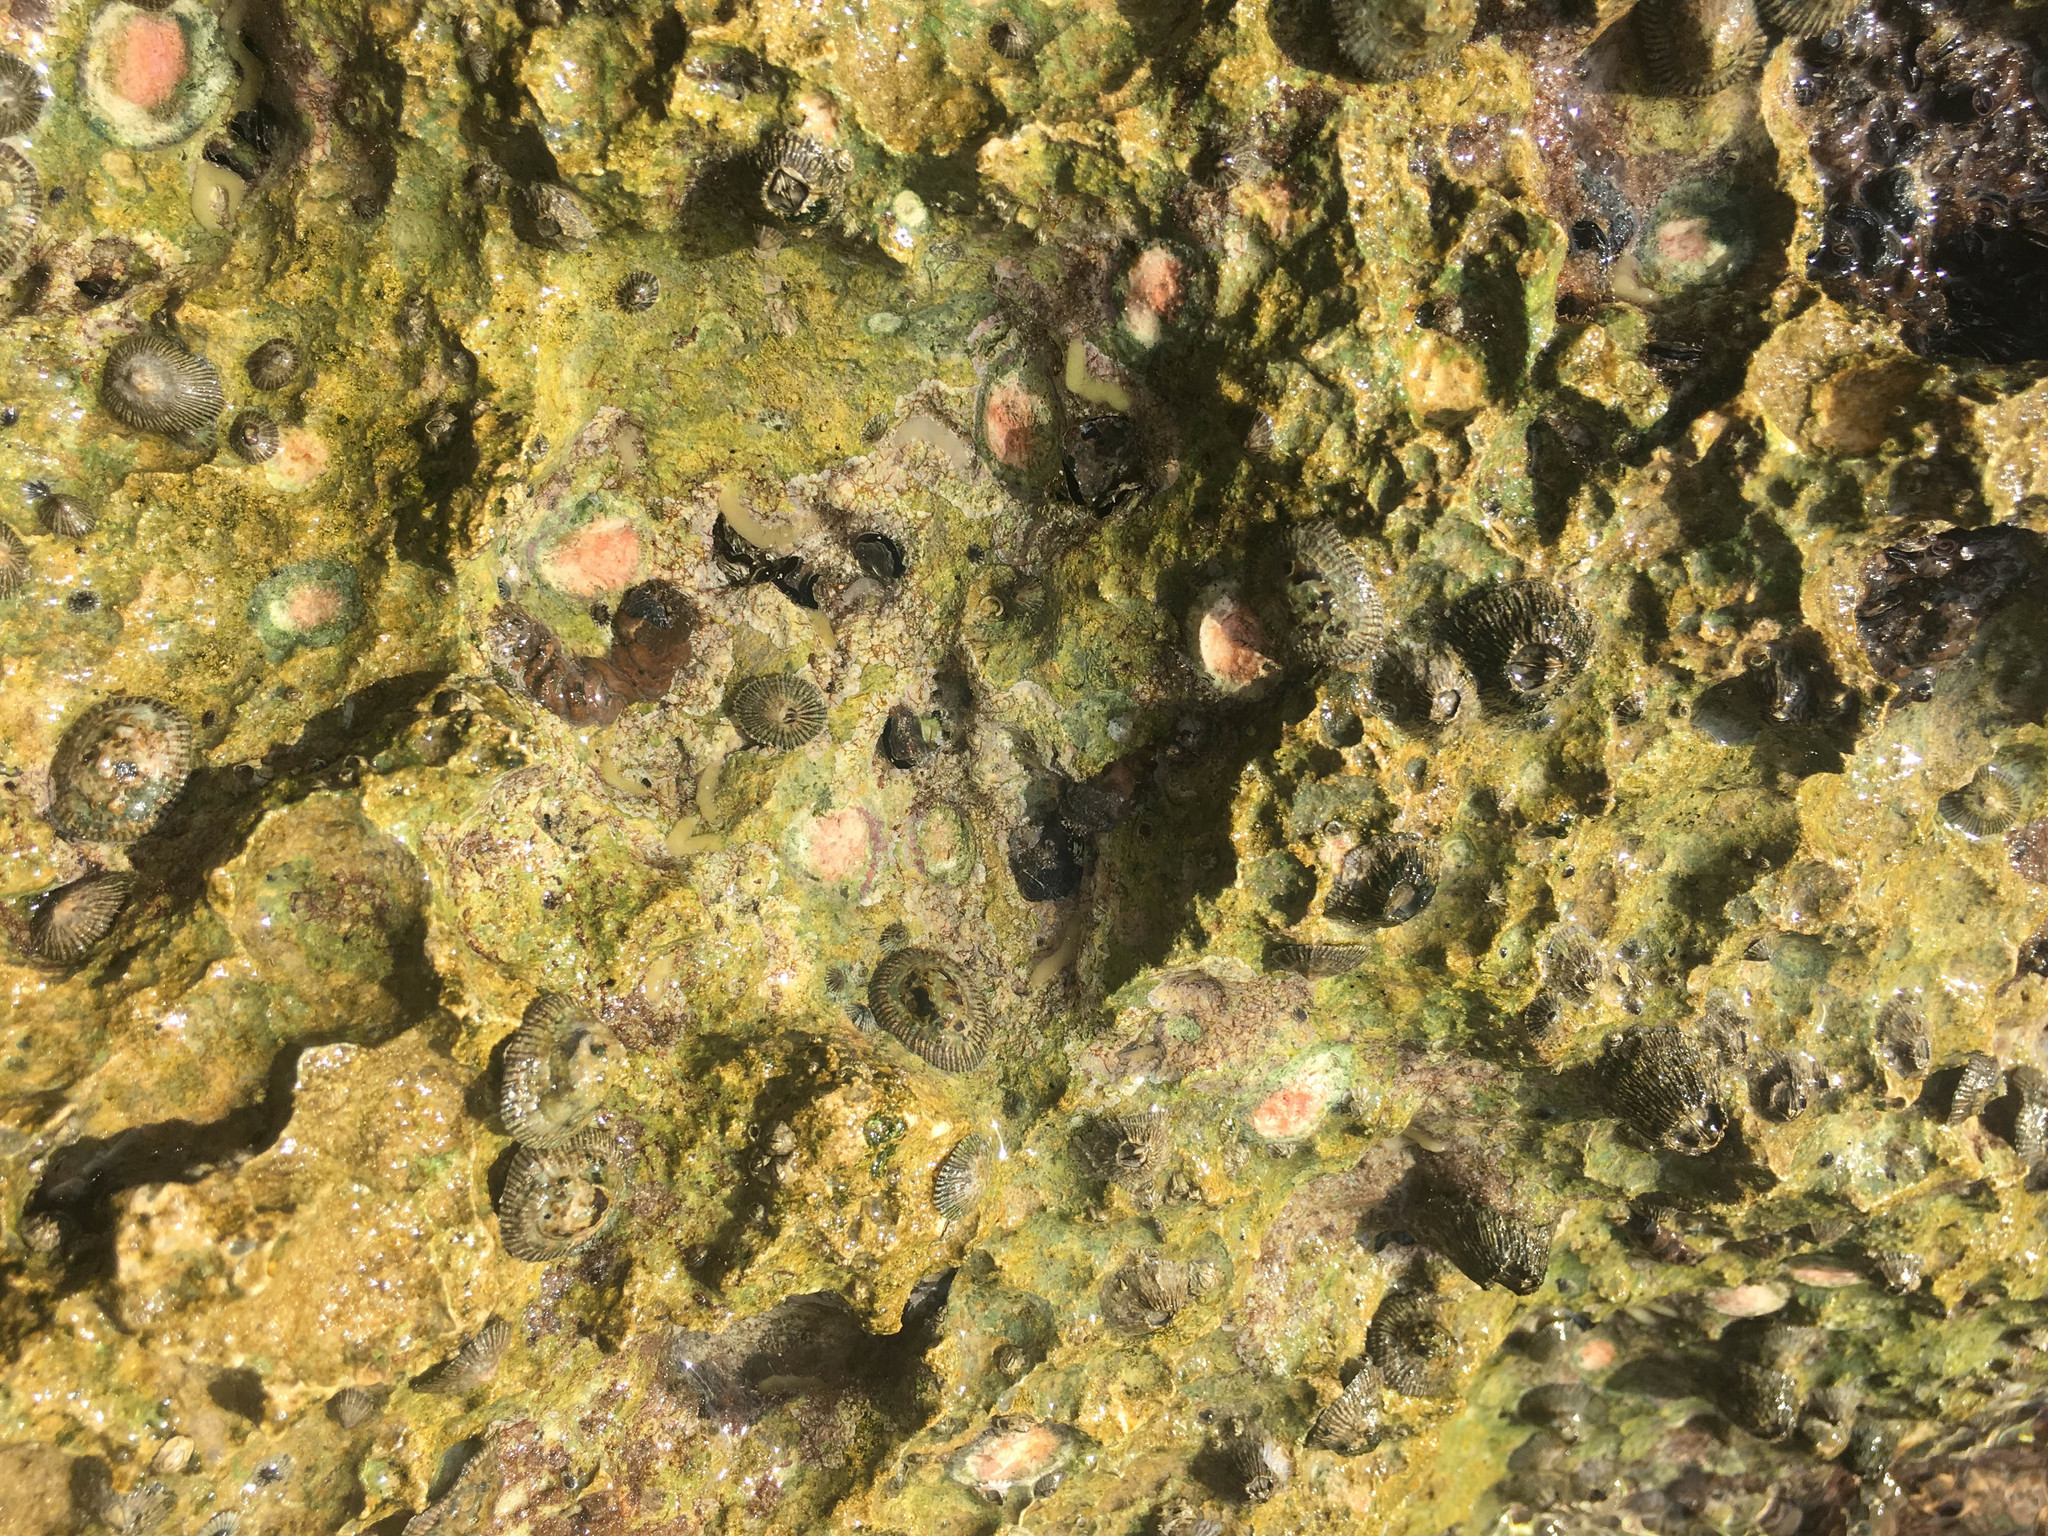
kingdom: Animalia
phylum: Arthropoda
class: Maxillopoda
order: Sessilia
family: Tetraclitidae
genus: Tetraclita
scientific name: Tetraclita stalactifera
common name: Ribbed barnacle
